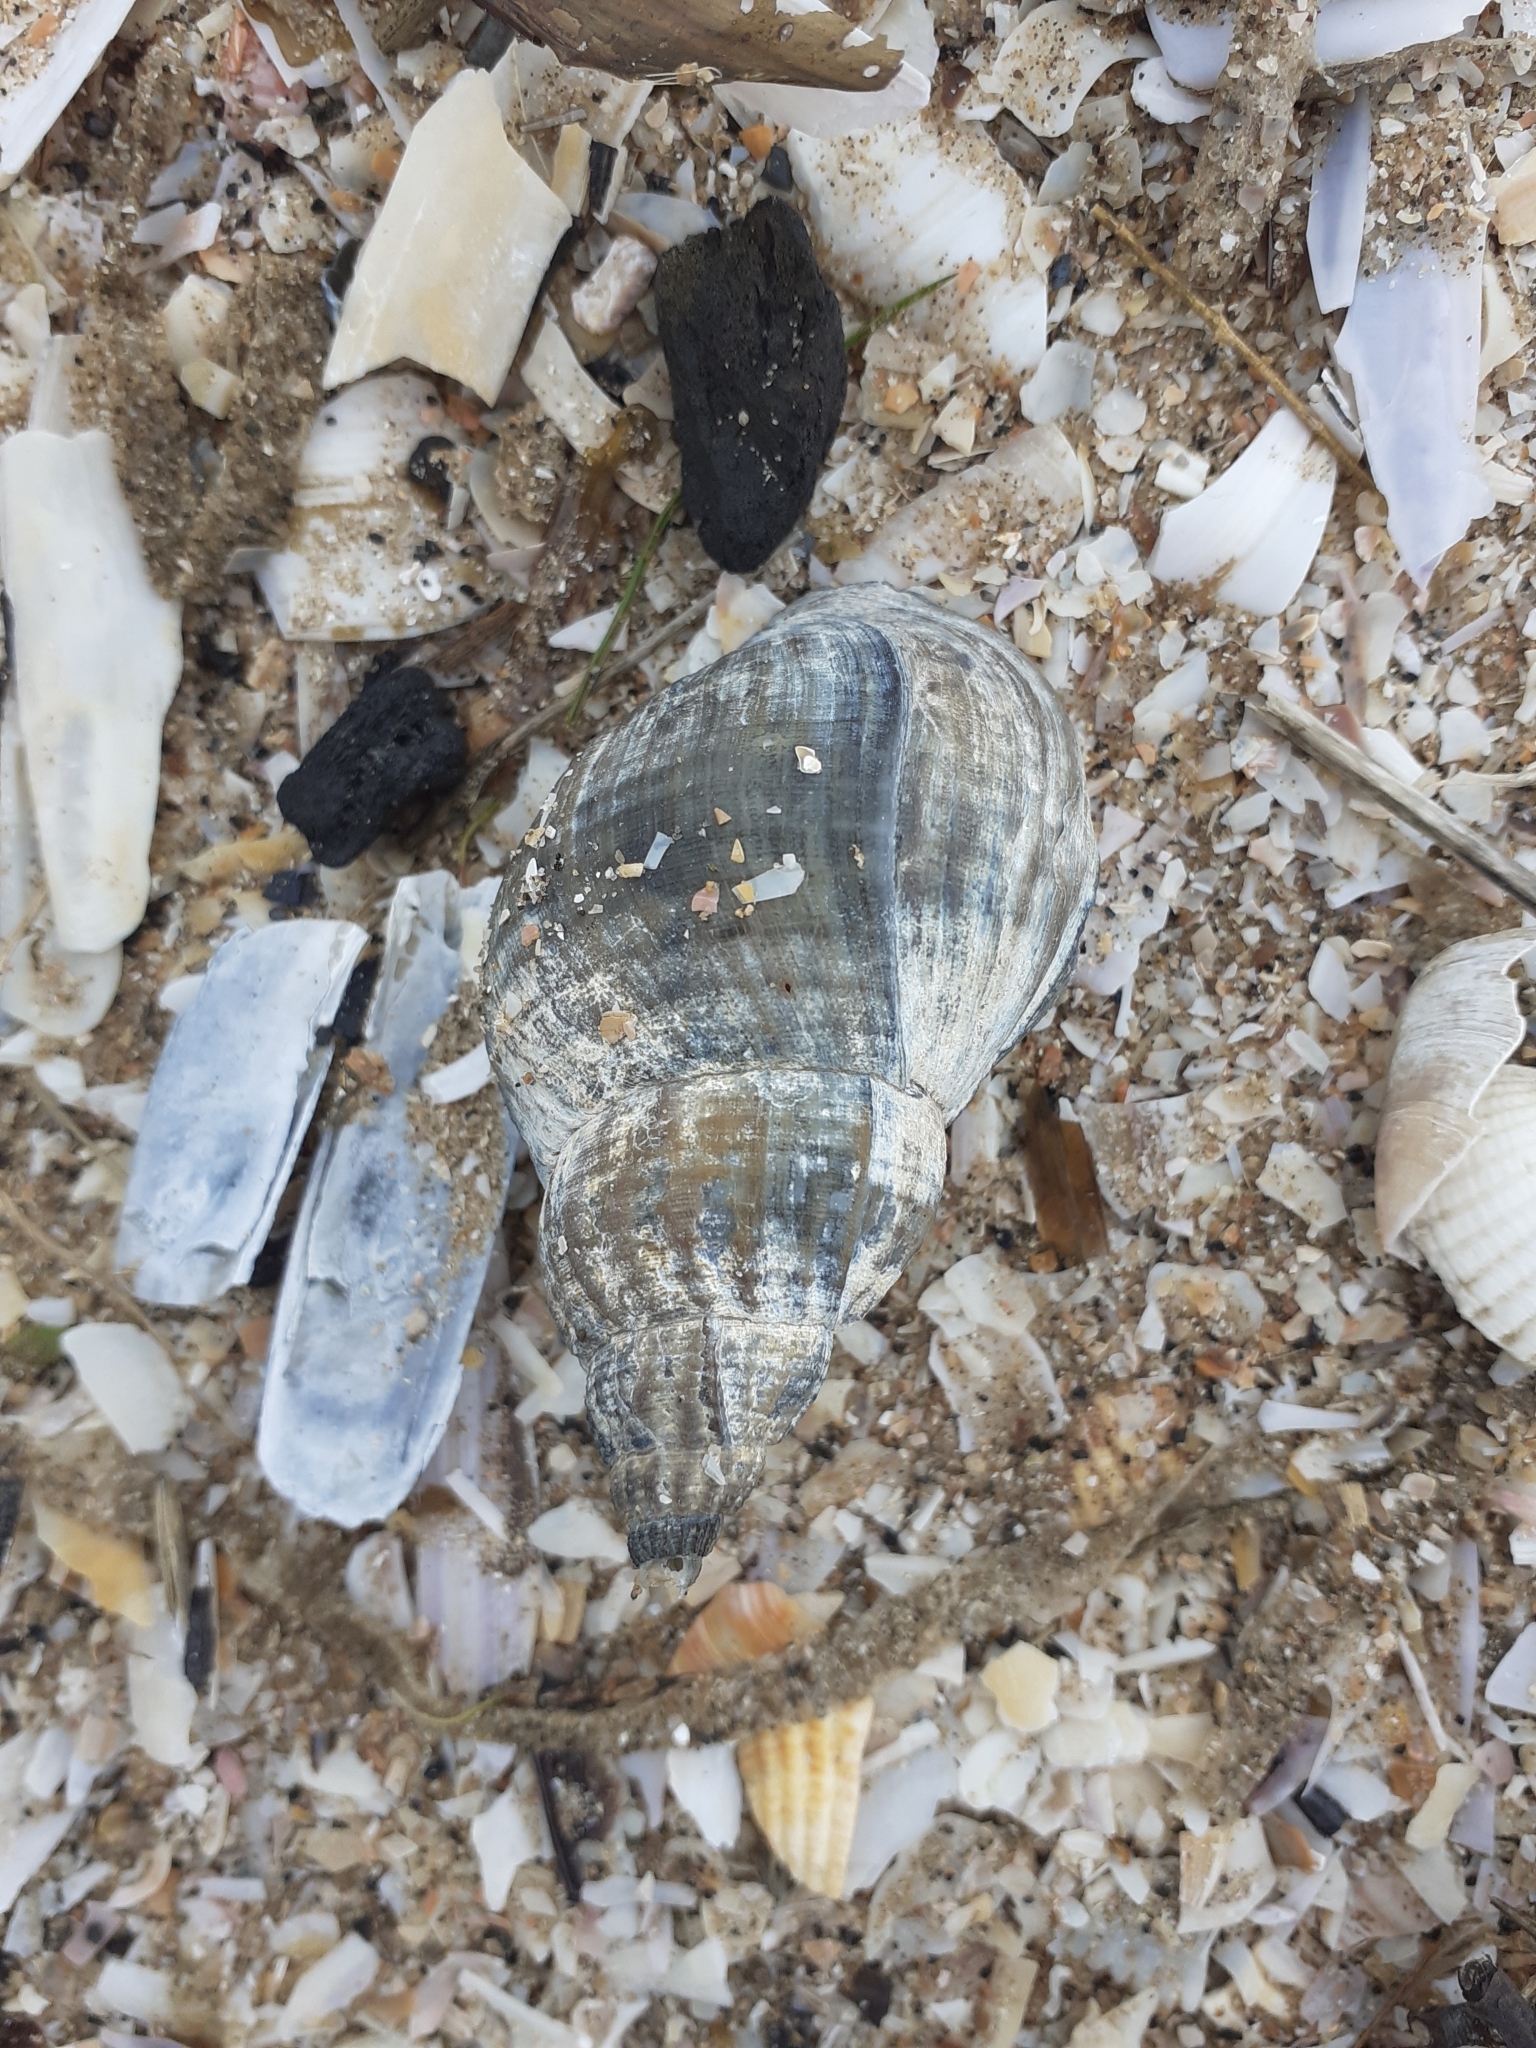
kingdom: Animalia
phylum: Mollusca
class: Gastropoda
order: Neogastropoda
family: Buccinidae
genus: Buccinum
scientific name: Buccinum undatum
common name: Common whelk
